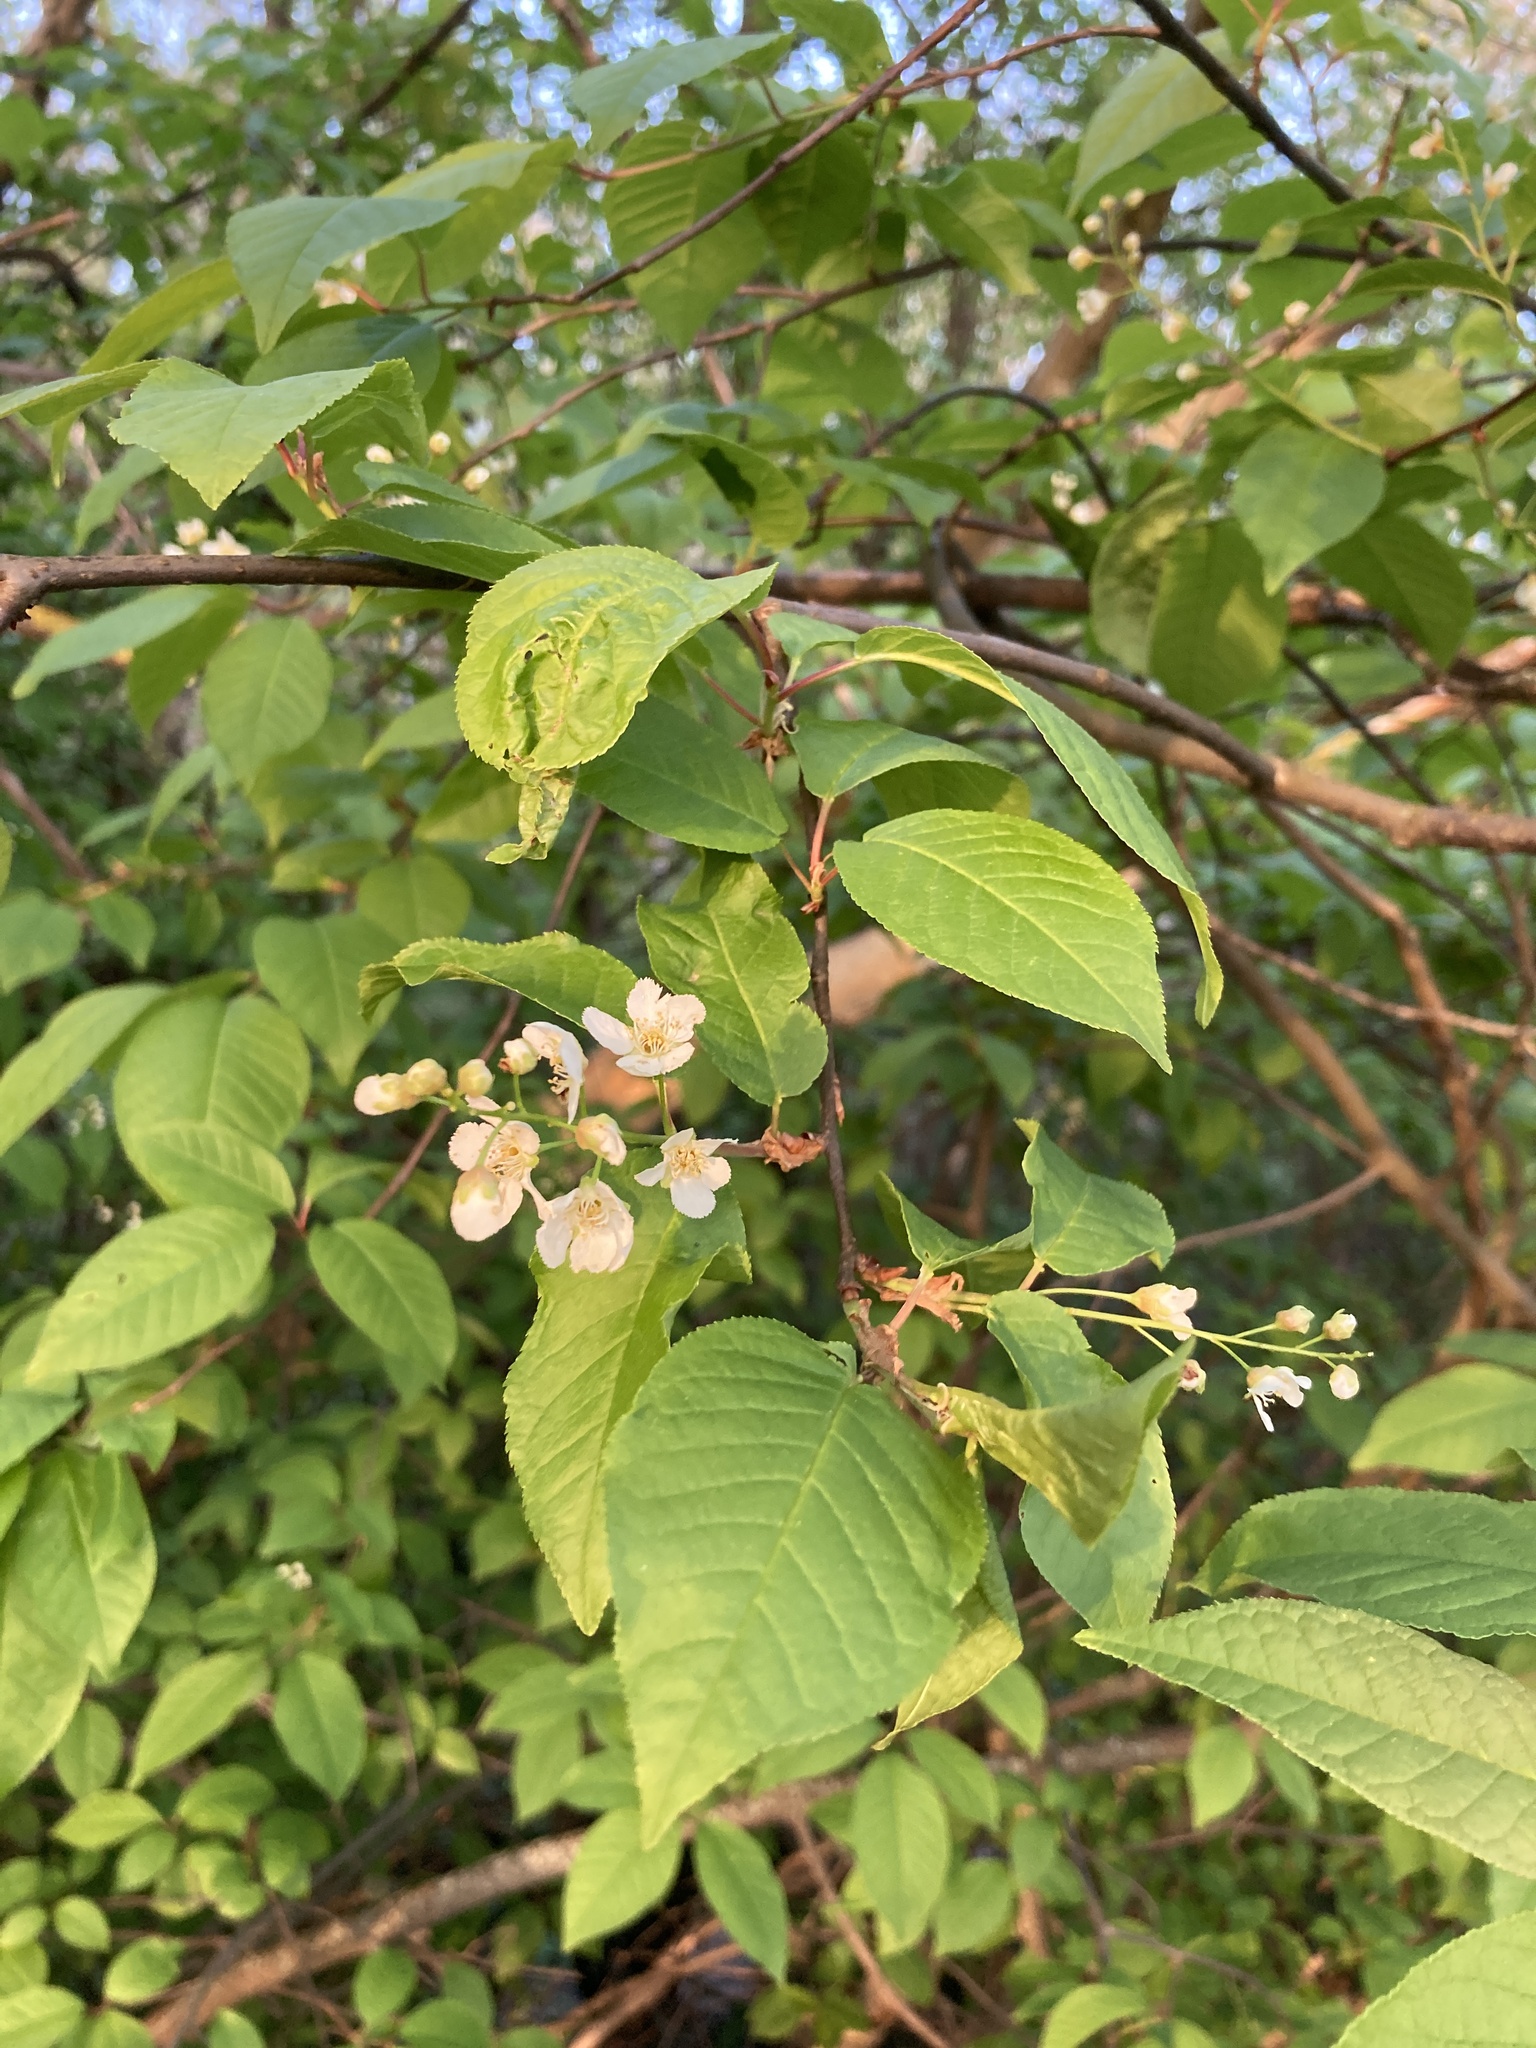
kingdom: Plantae
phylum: Tracheophyta
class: Magnoliopsida
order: Rosales
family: Rosaceae
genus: Prunus
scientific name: Prunus padus
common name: Bird cherry
